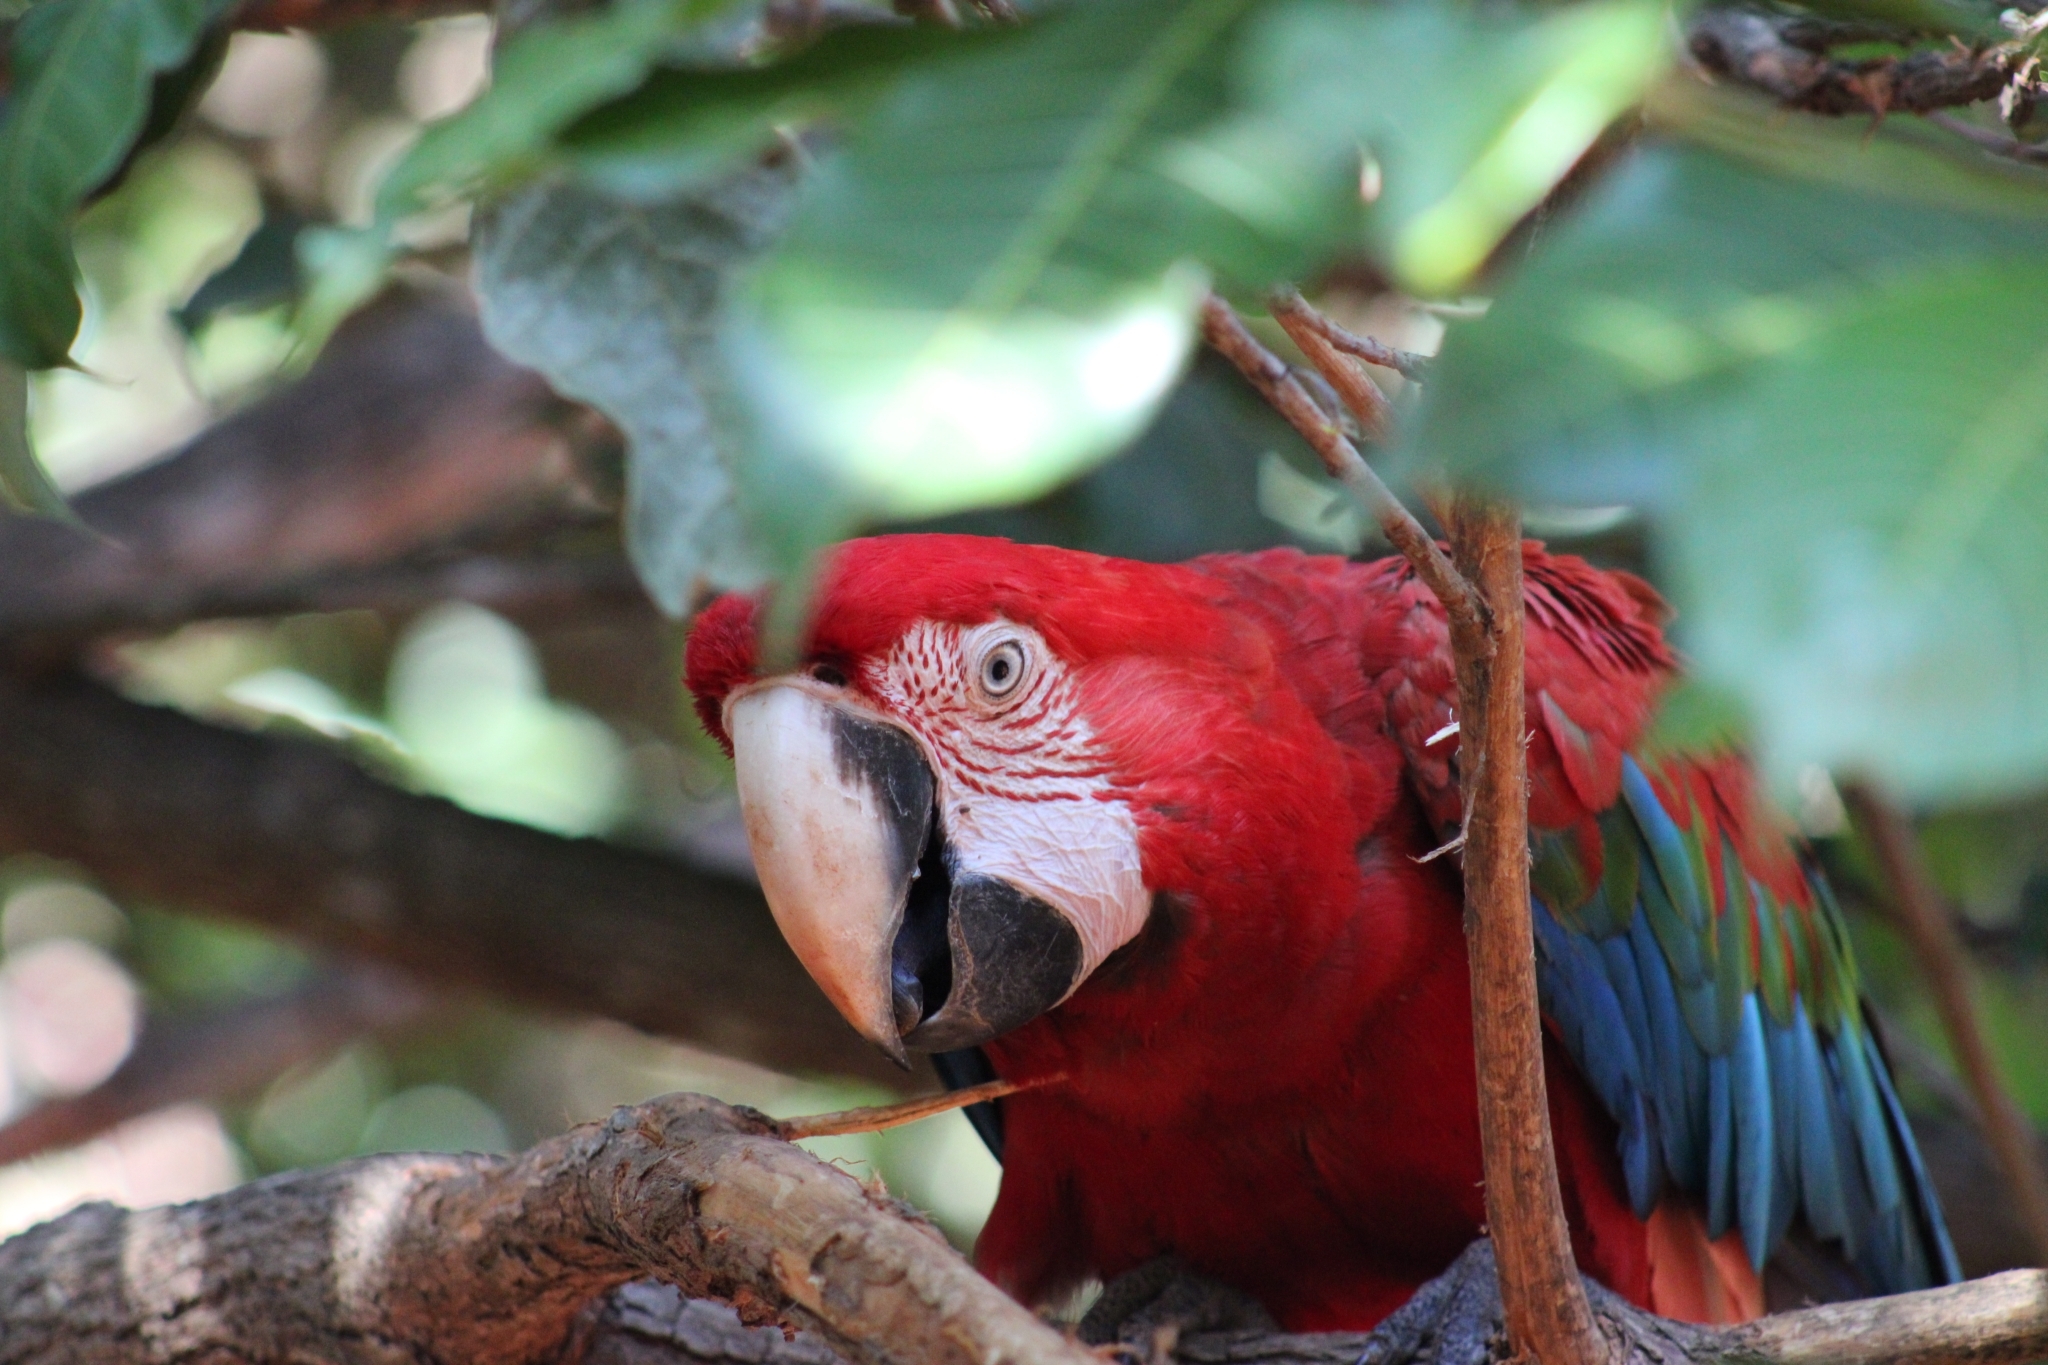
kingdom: Animalia
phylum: Chordata
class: Aves
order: Psittaciformes
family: Psittacidae
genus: Ara
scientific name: Ara chloropterus
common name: Red-and-green macaw
